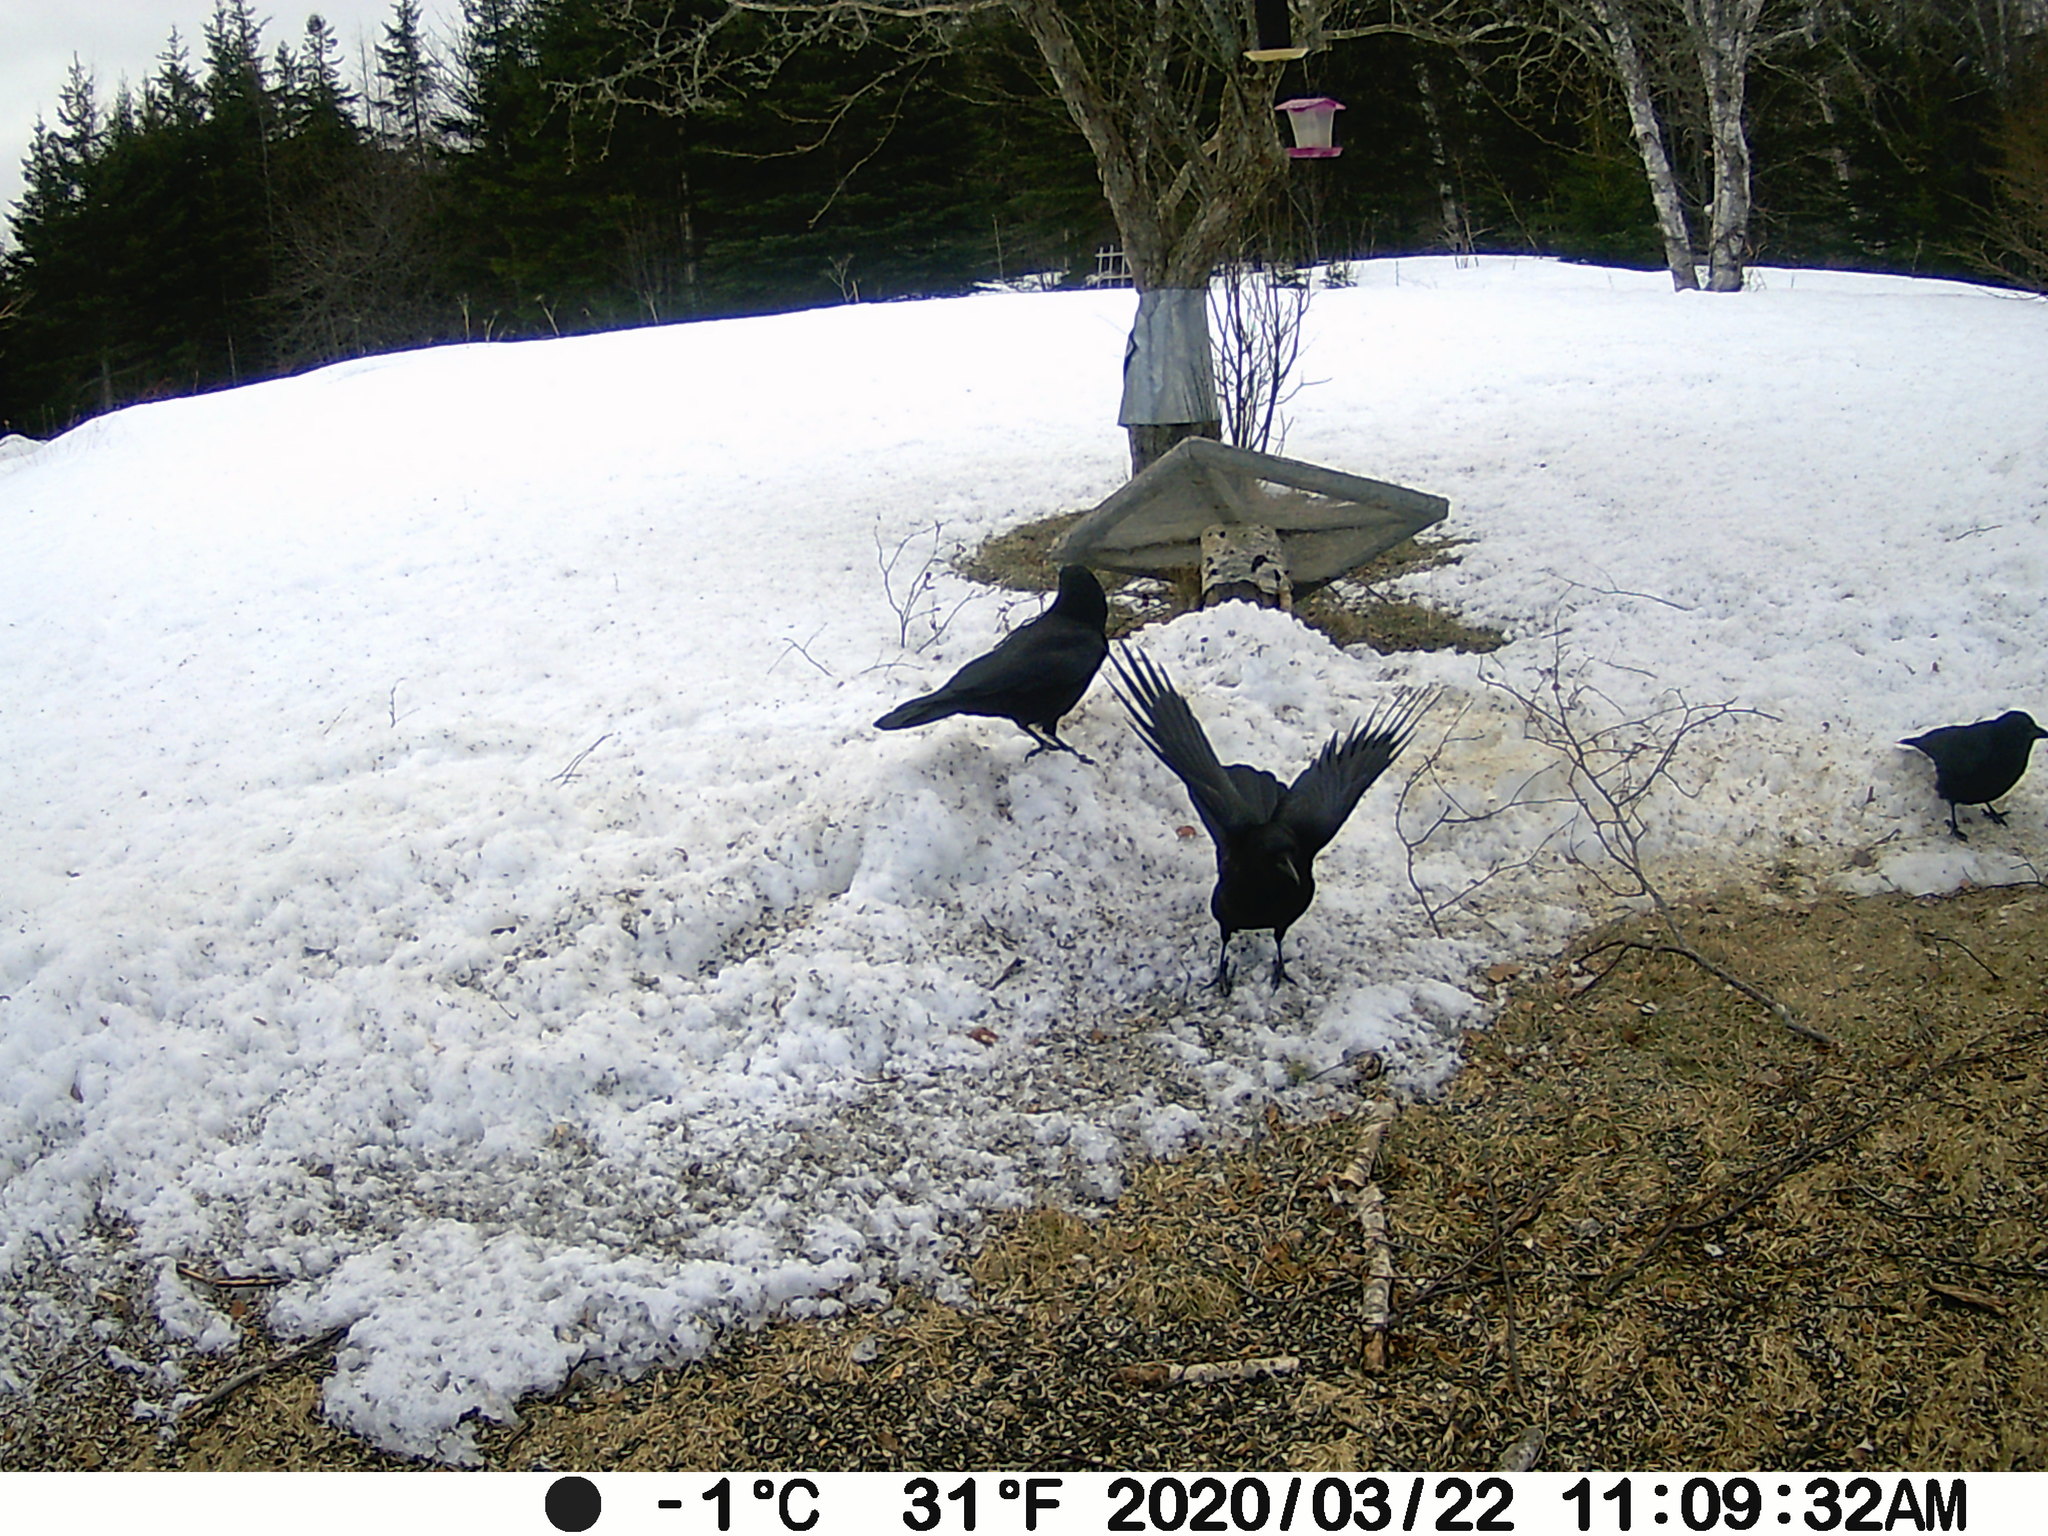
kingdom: Animalia
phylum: Chordata
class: Aves
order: Passeriformes
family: Corvidae
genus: Corvus
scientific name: Corvus brachyrhynchos
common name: American crow
